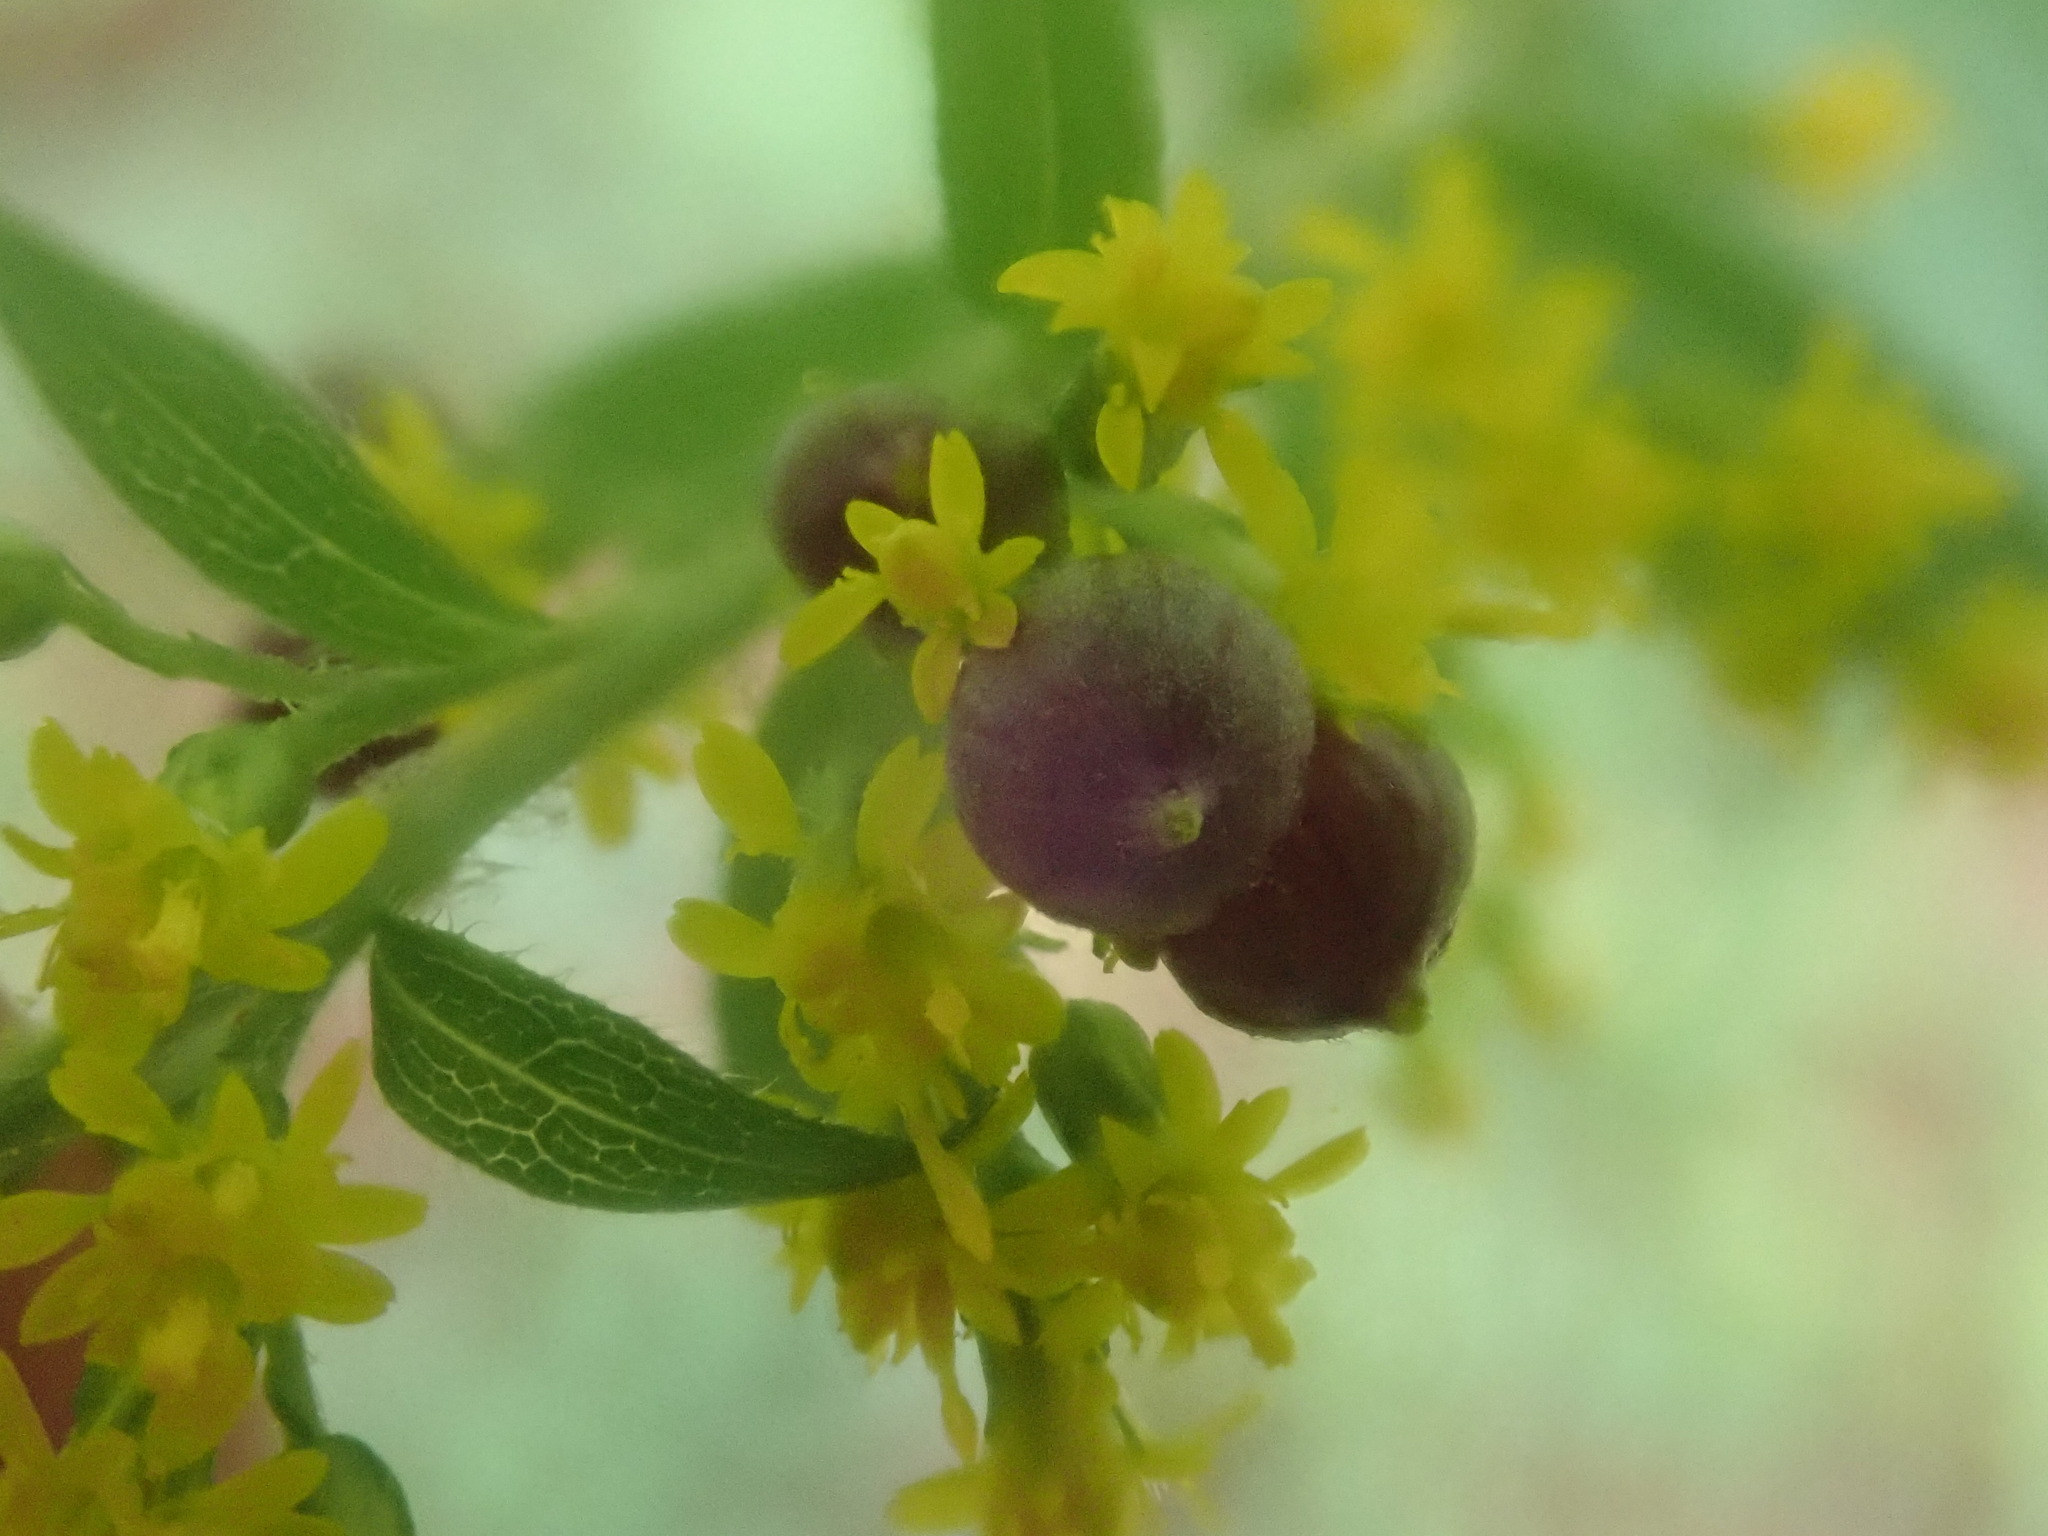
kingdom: Animalia
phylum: Arthropoda
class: Insecta
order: Diptera
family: Cecidomyiidae
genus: Schizomyia
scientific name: Schizomyia racemicola
